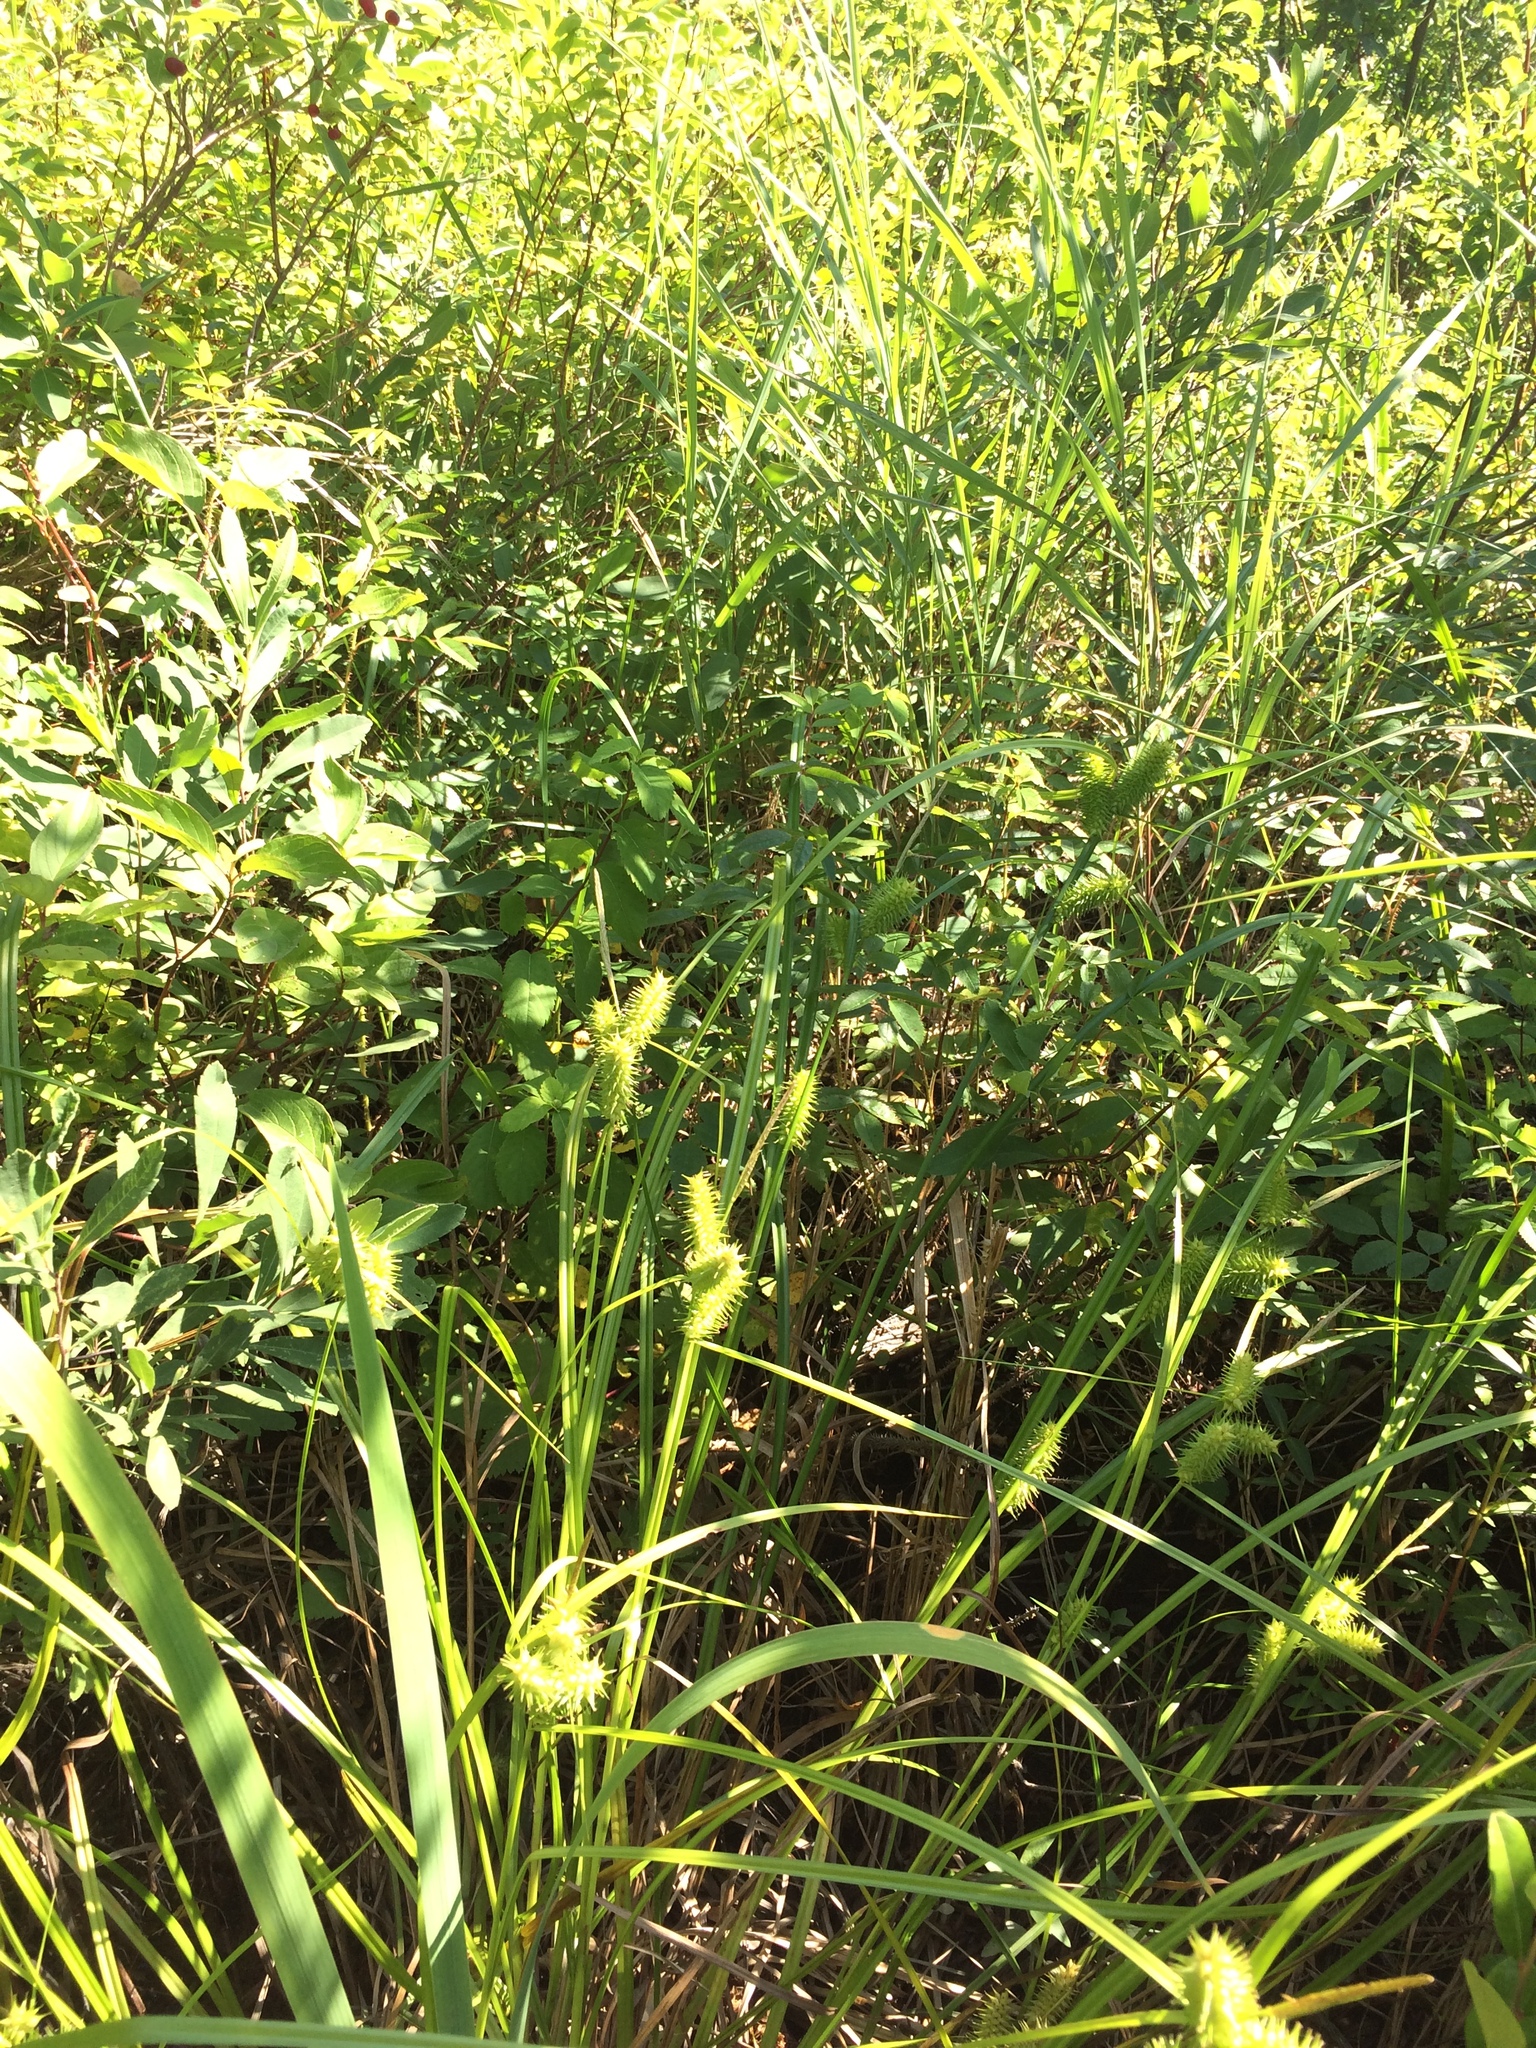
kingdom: Plantae
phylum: Tracheophyta
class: Liliopsida
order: Poales
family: Cyperaceae
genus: Carex
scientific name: Carex retrorsa
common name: Knot-sheath sedge
